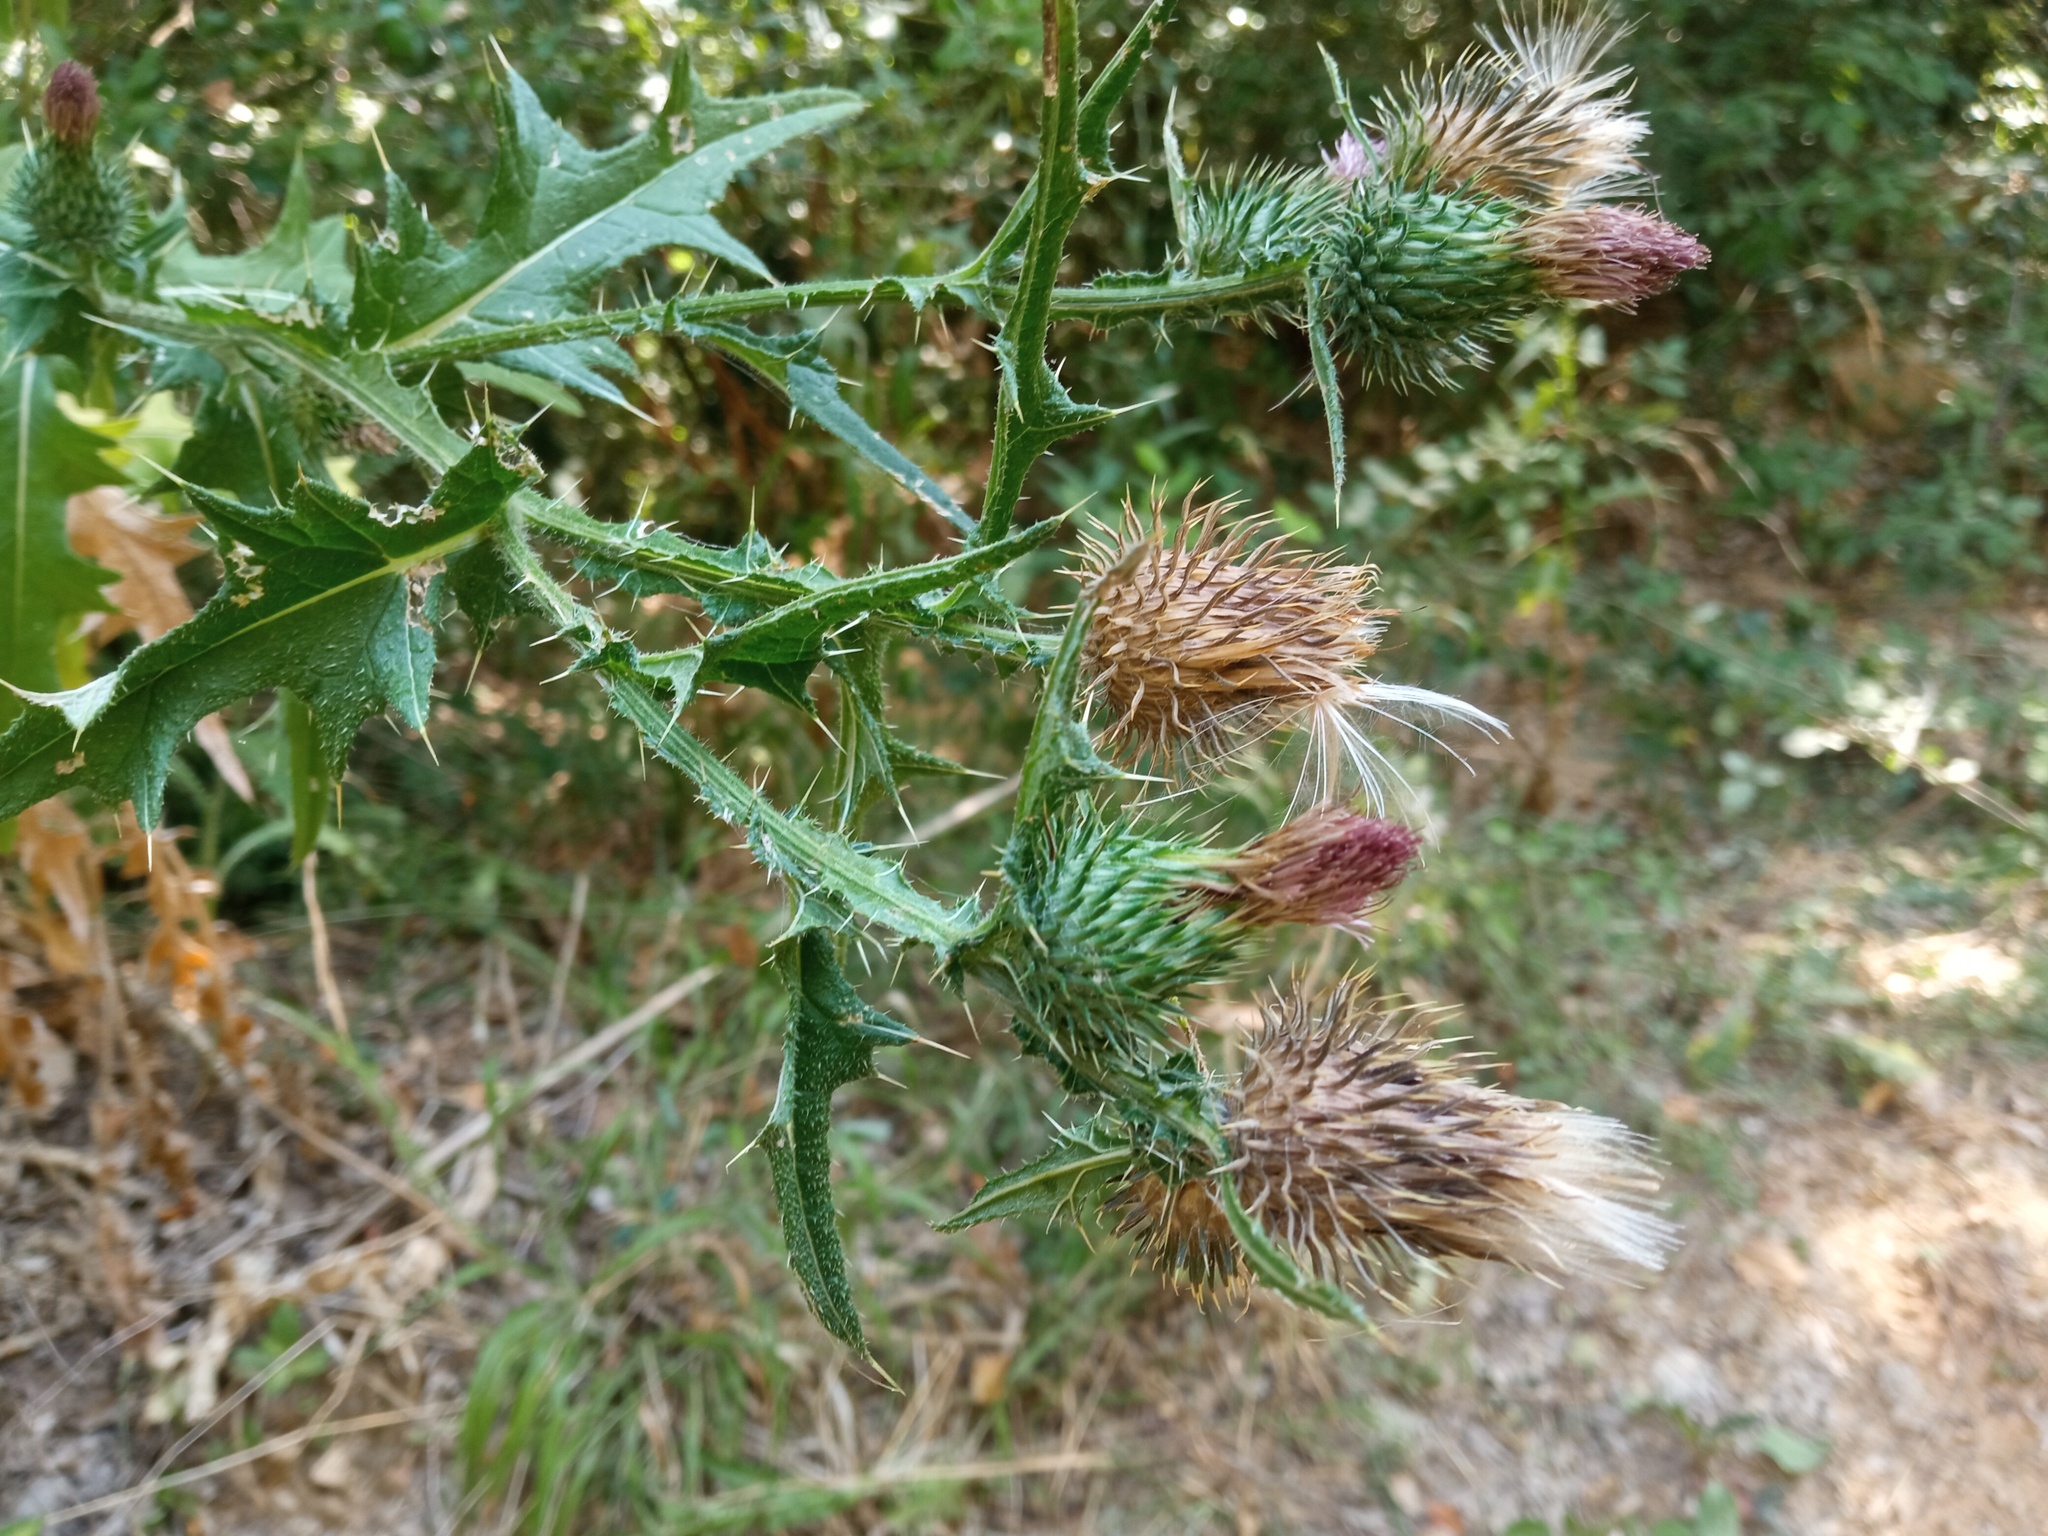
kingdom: Plantae
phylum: Tracheophyta
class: Magnoliopsida
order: Asterales
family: Asteraceae
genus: Cirsium
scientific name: Cirsium vulgare
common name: Bull thistle
